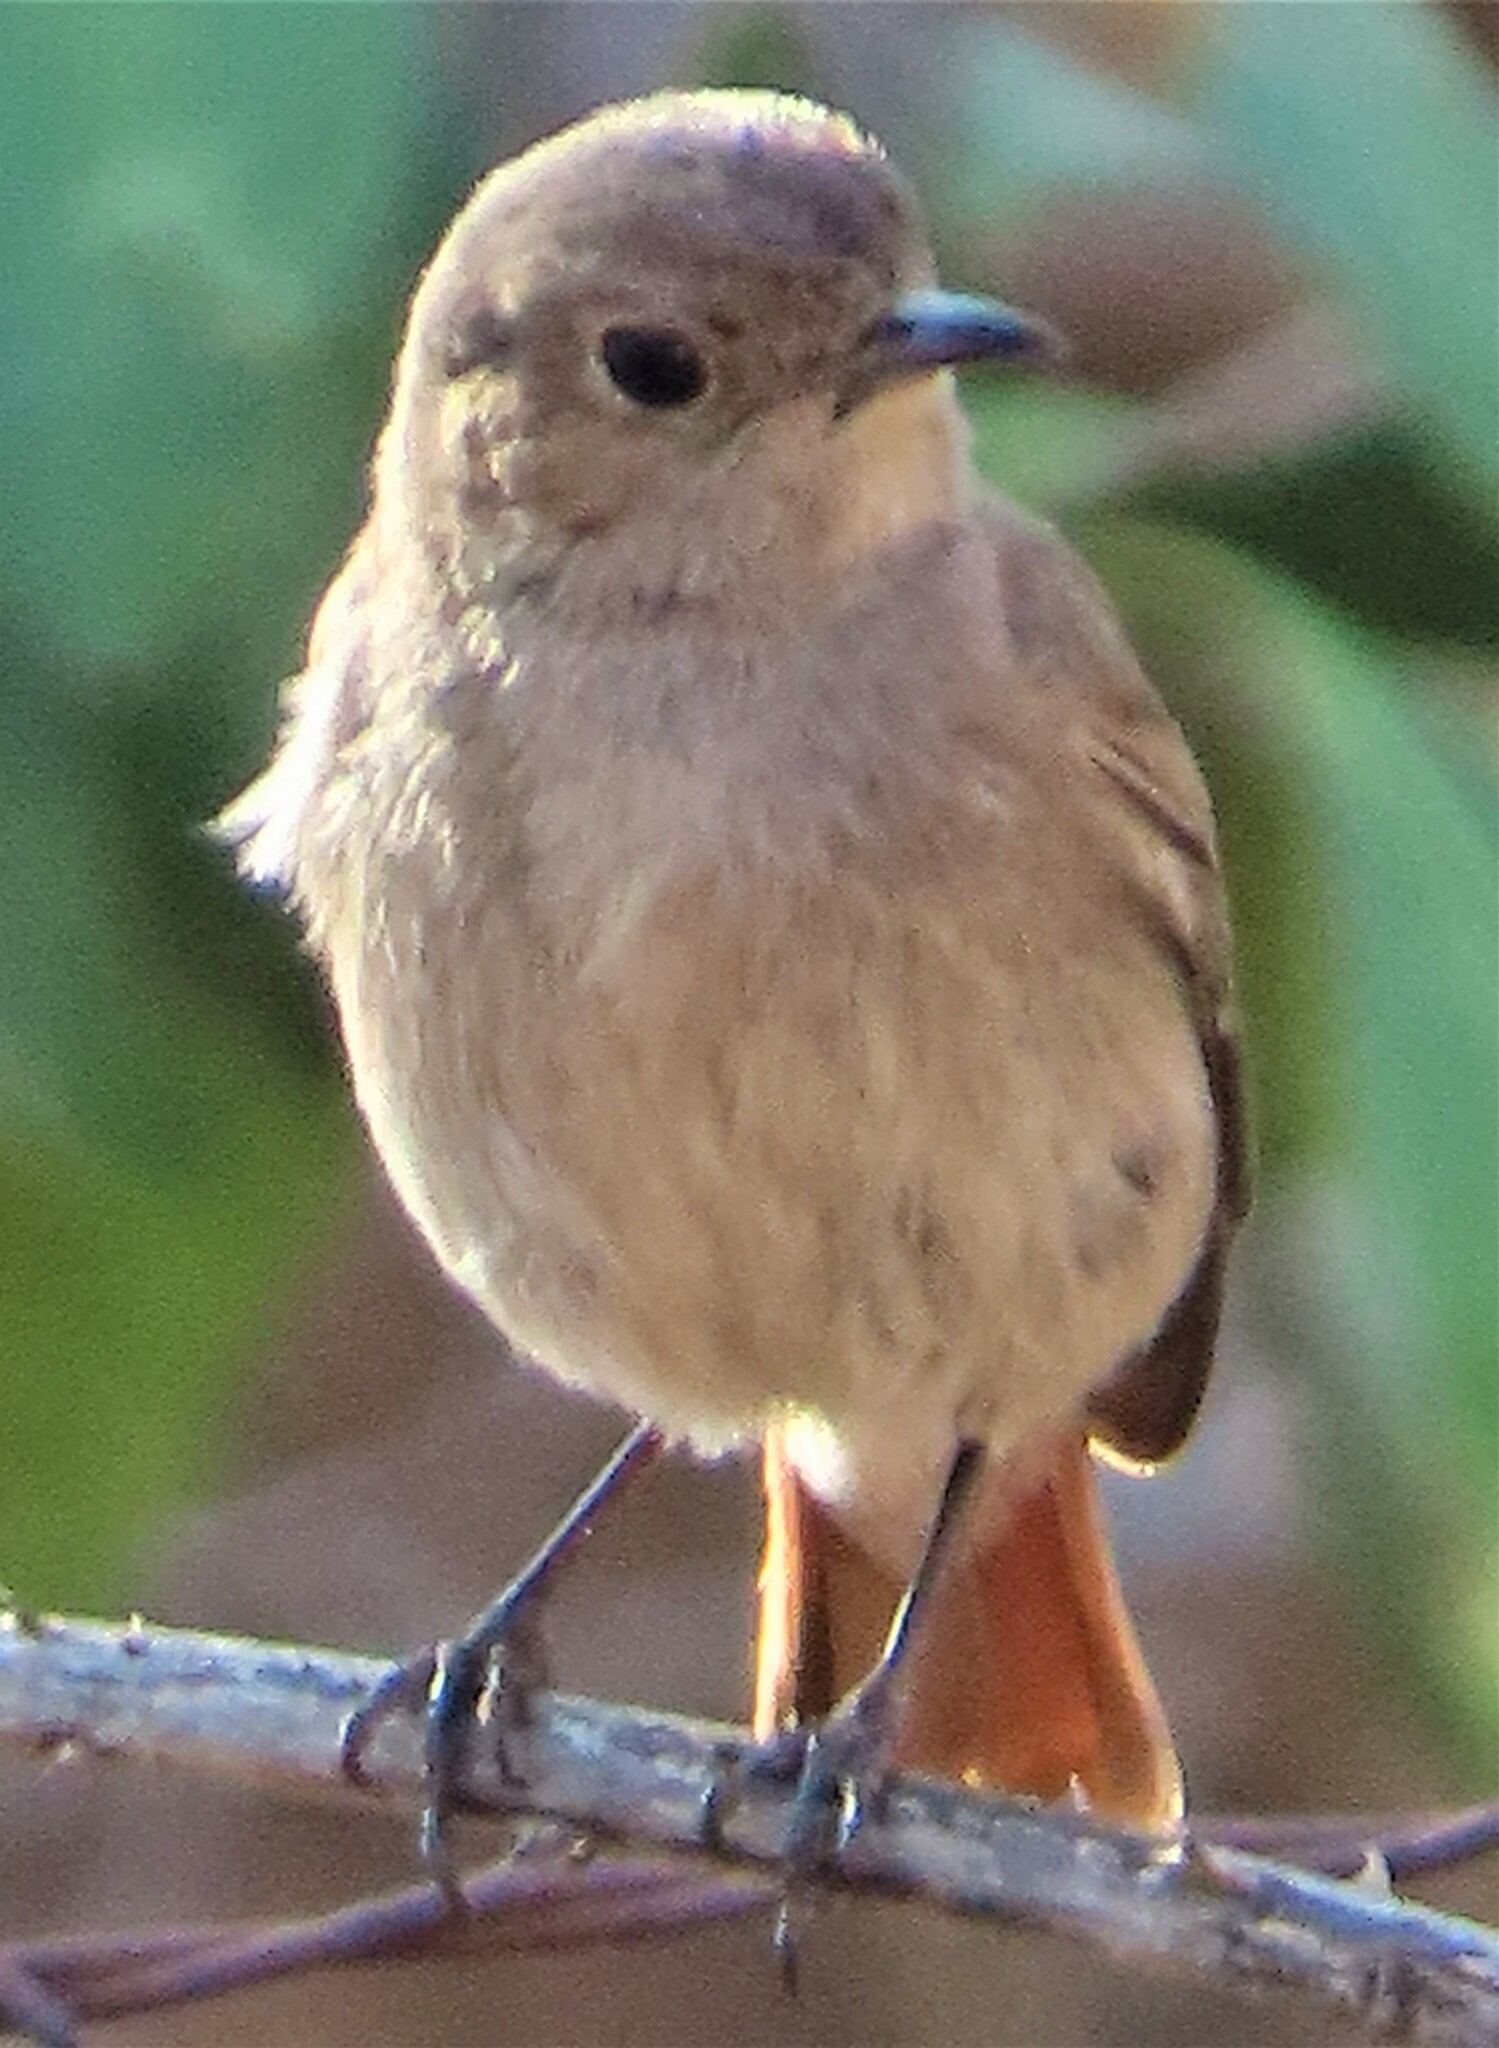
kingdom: Animalia
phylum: Chordata
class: Aves
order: Passeriformes
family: Muscicapidae
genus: Oenanthe
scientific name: Oenanthe familiaris
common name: Familiar chat
